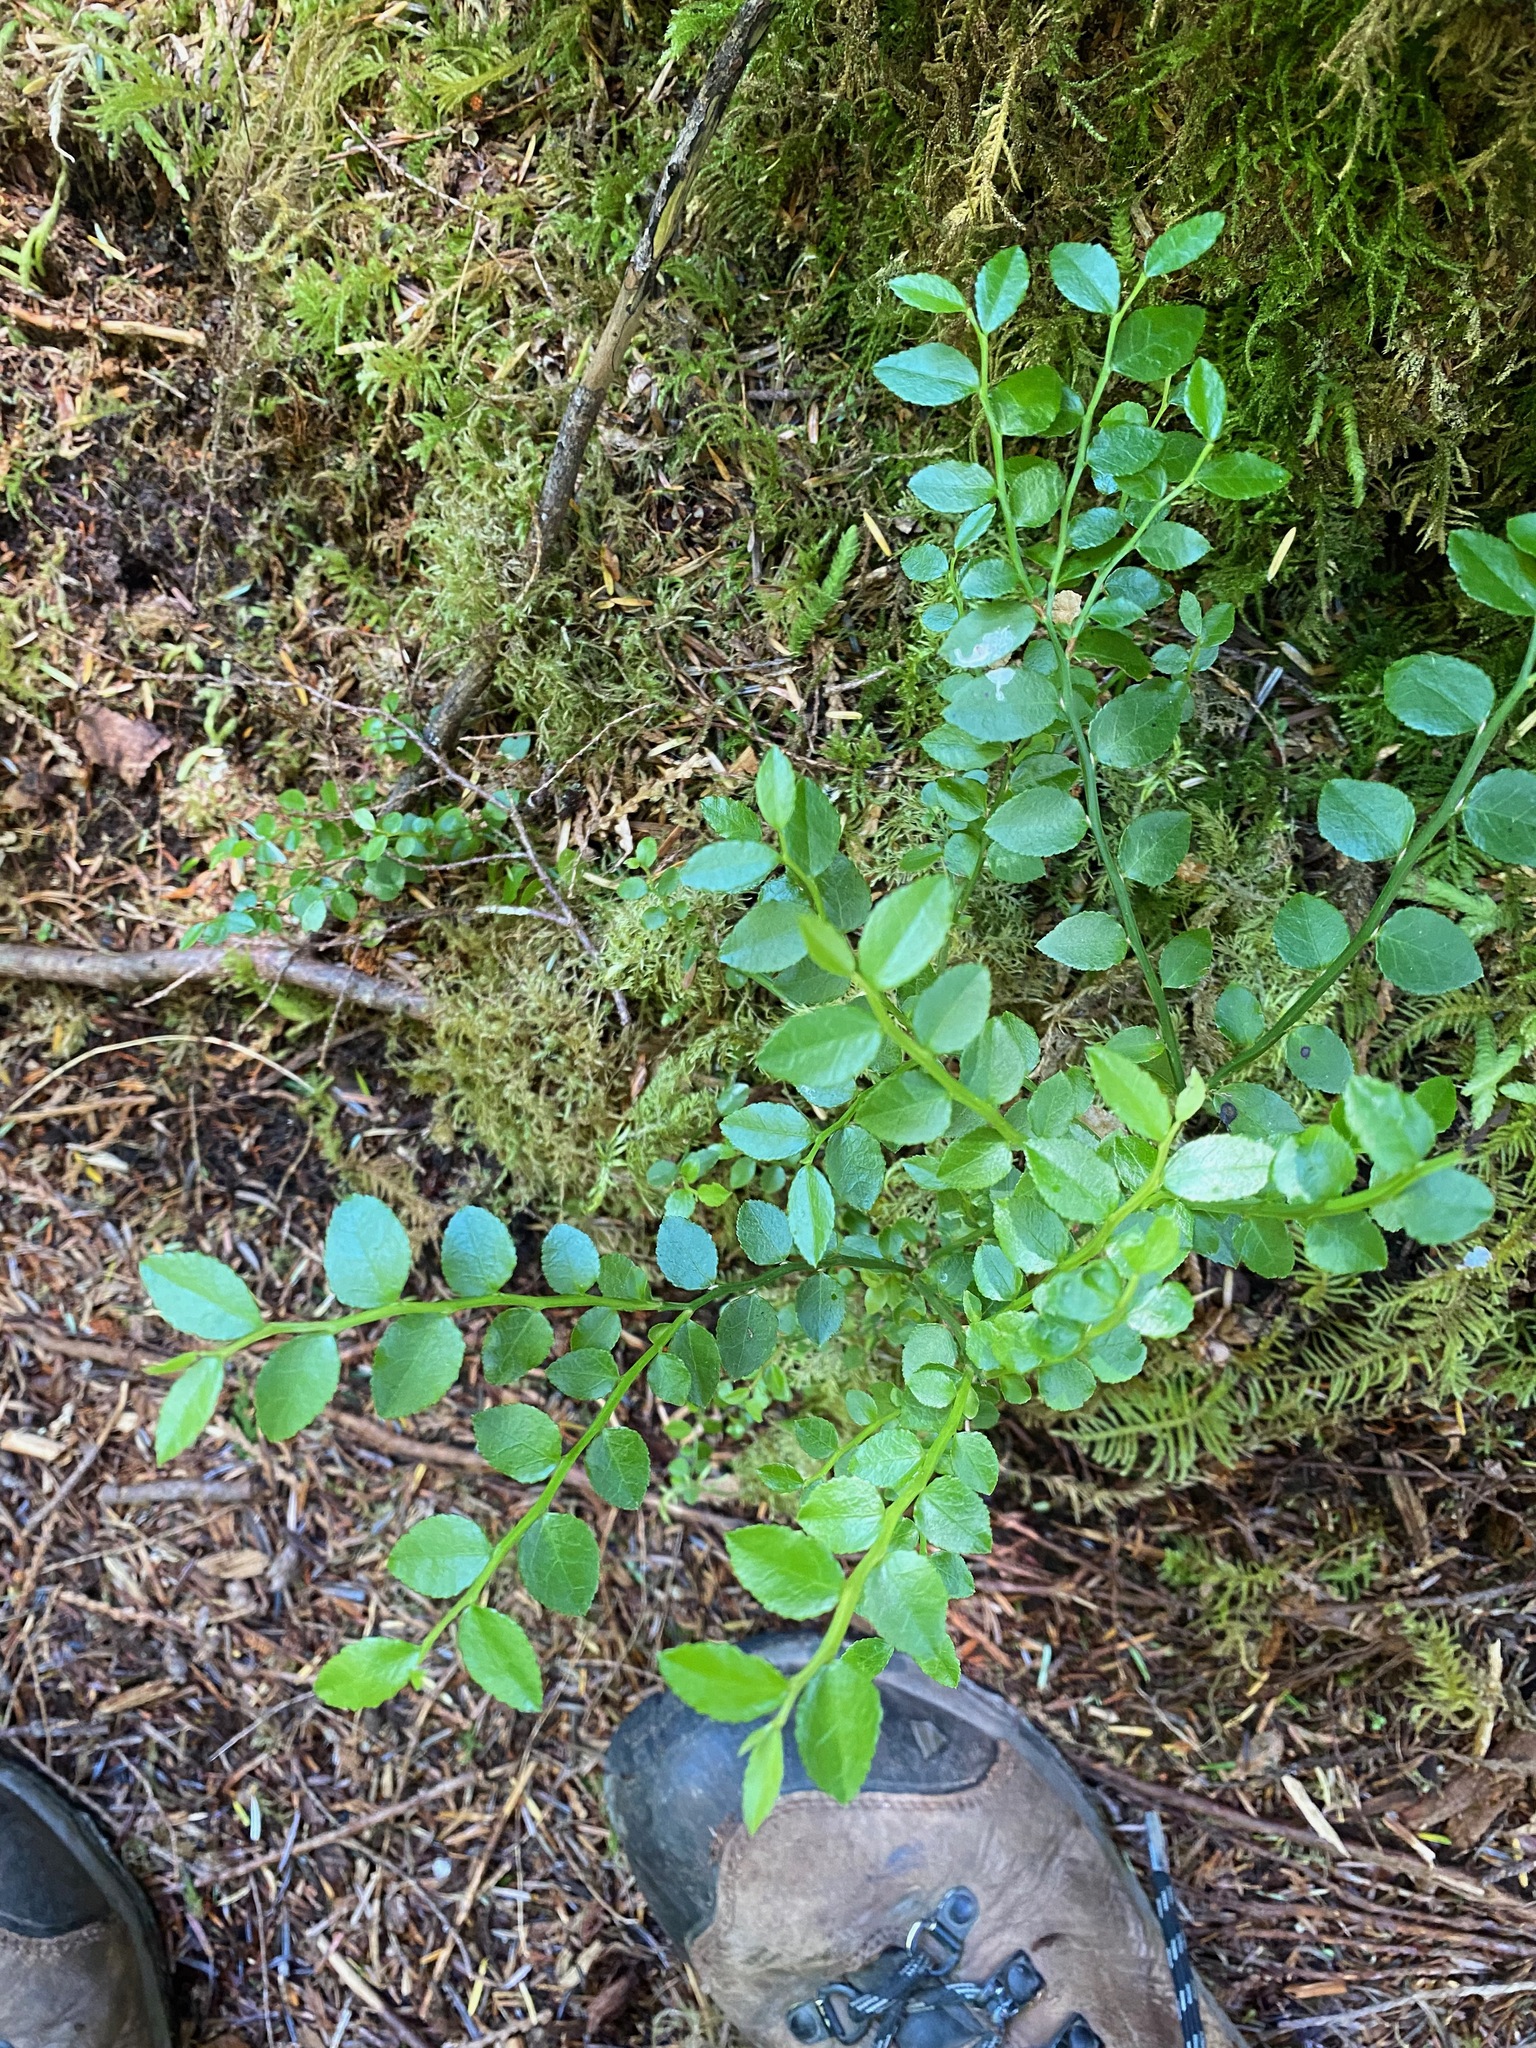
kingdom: Plantae
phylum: Tracheophyta
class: Magnoliopsida
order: Ericales
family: Ericaceae
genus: Vaccinium
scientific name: Vaccinium parvifolium
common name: Red-huckleberry
